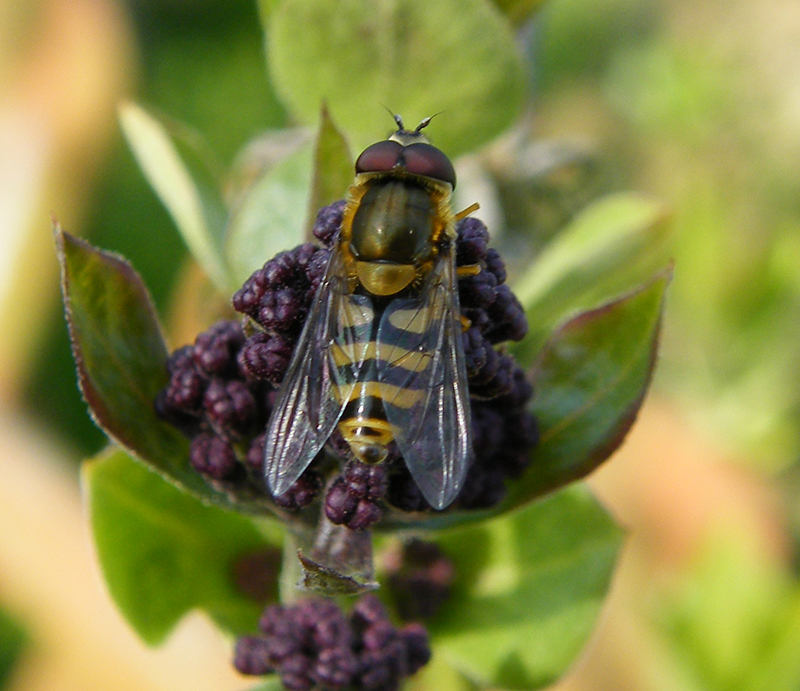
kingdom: Animalia
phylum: Arthropoda
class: Insecta
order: Diptera
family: Syrphidae
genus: Syrphus
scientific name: Syrphus
